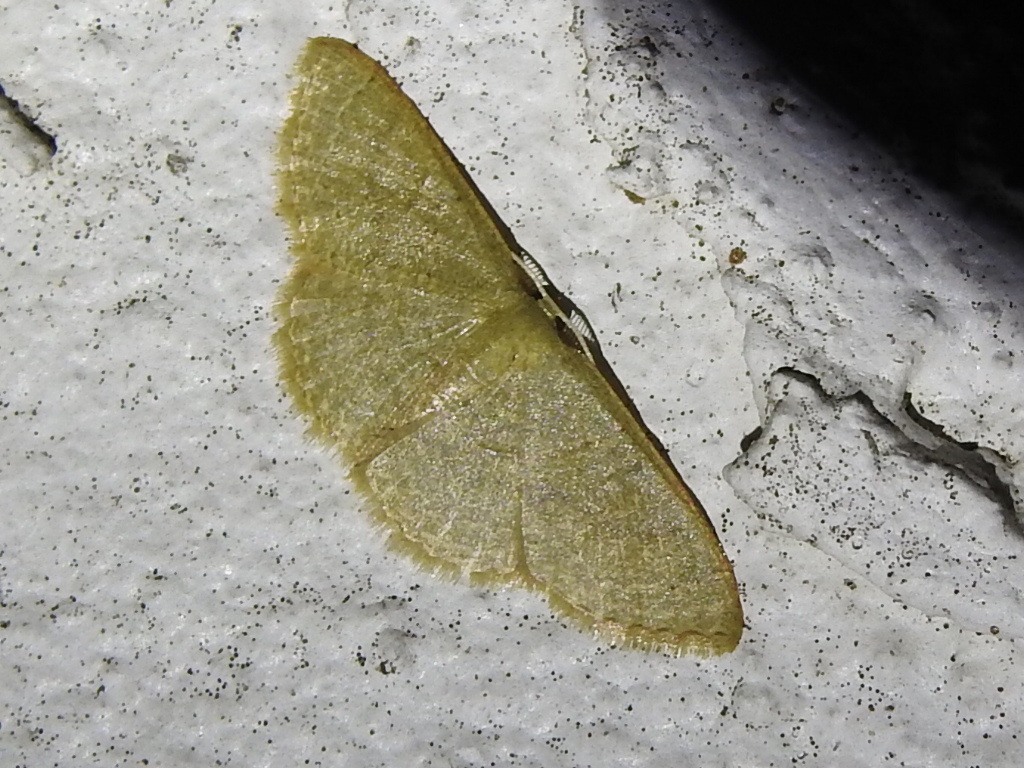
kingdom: Animalia
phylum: Arthropoda
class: Insecta
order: Lepidoptera
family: Geometridae
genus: Pleuroprucha
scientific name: Pleuroprucha insulsaria
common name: Common tan wave
